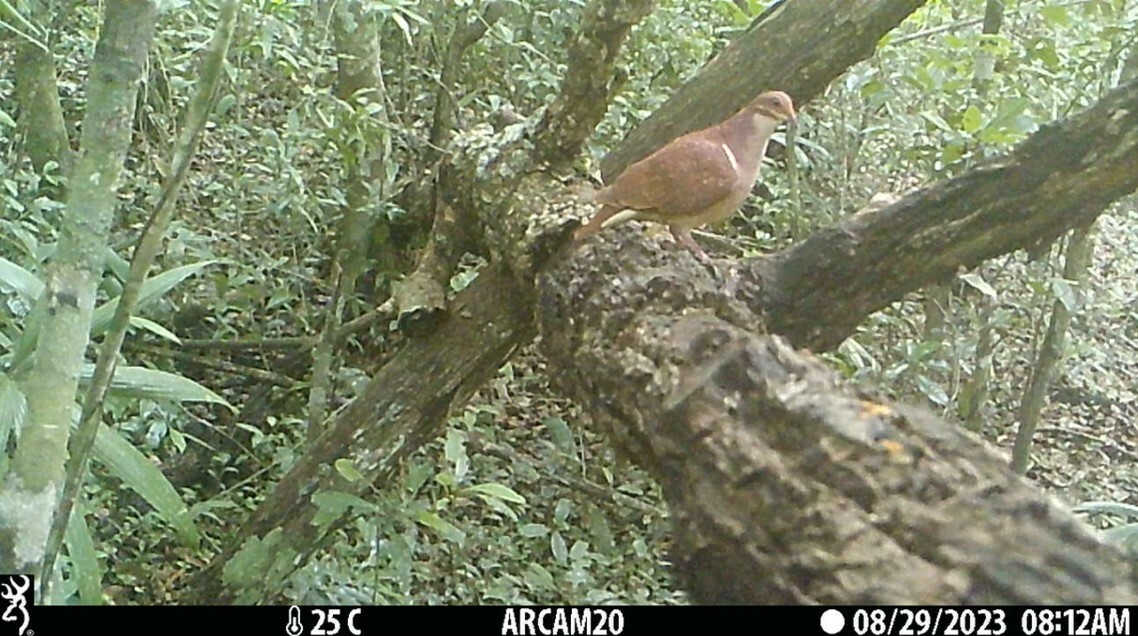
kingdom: Animalia
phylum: Chordata
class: Aves
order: Columbiformes
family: Columbidae
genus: Geotrygon
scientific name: Geotrygon montana
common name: Ruddy quail-dove
